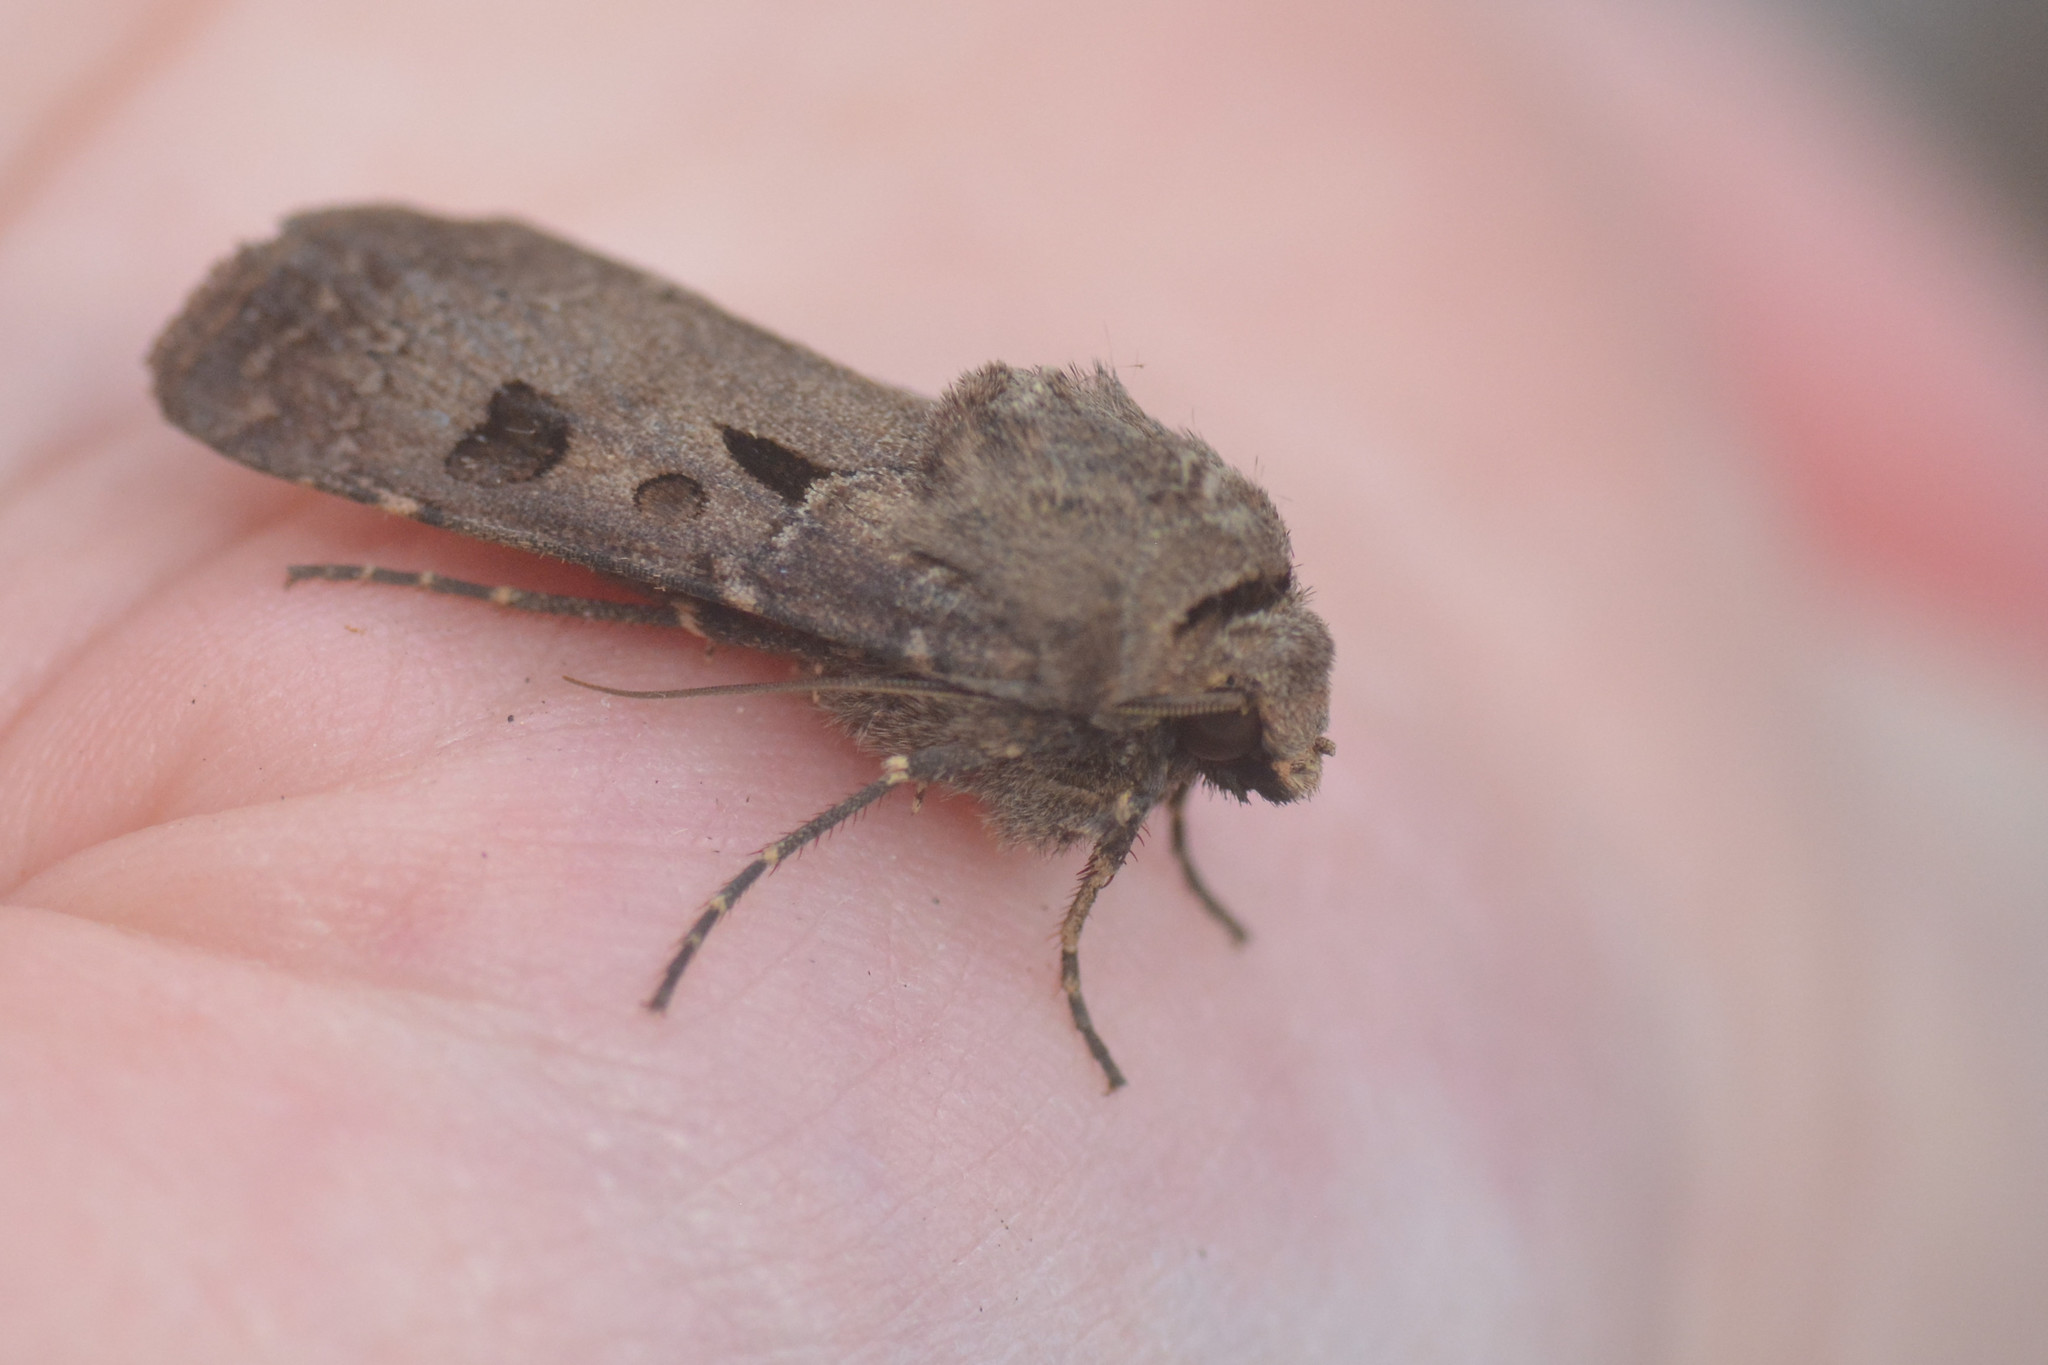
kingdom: Animalia
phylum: Arthropoda
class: Insecta
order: Lepidoptera
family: Noctuidae
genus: Agrotis
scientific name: Agrotis exclamationis
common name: Heart and dart
